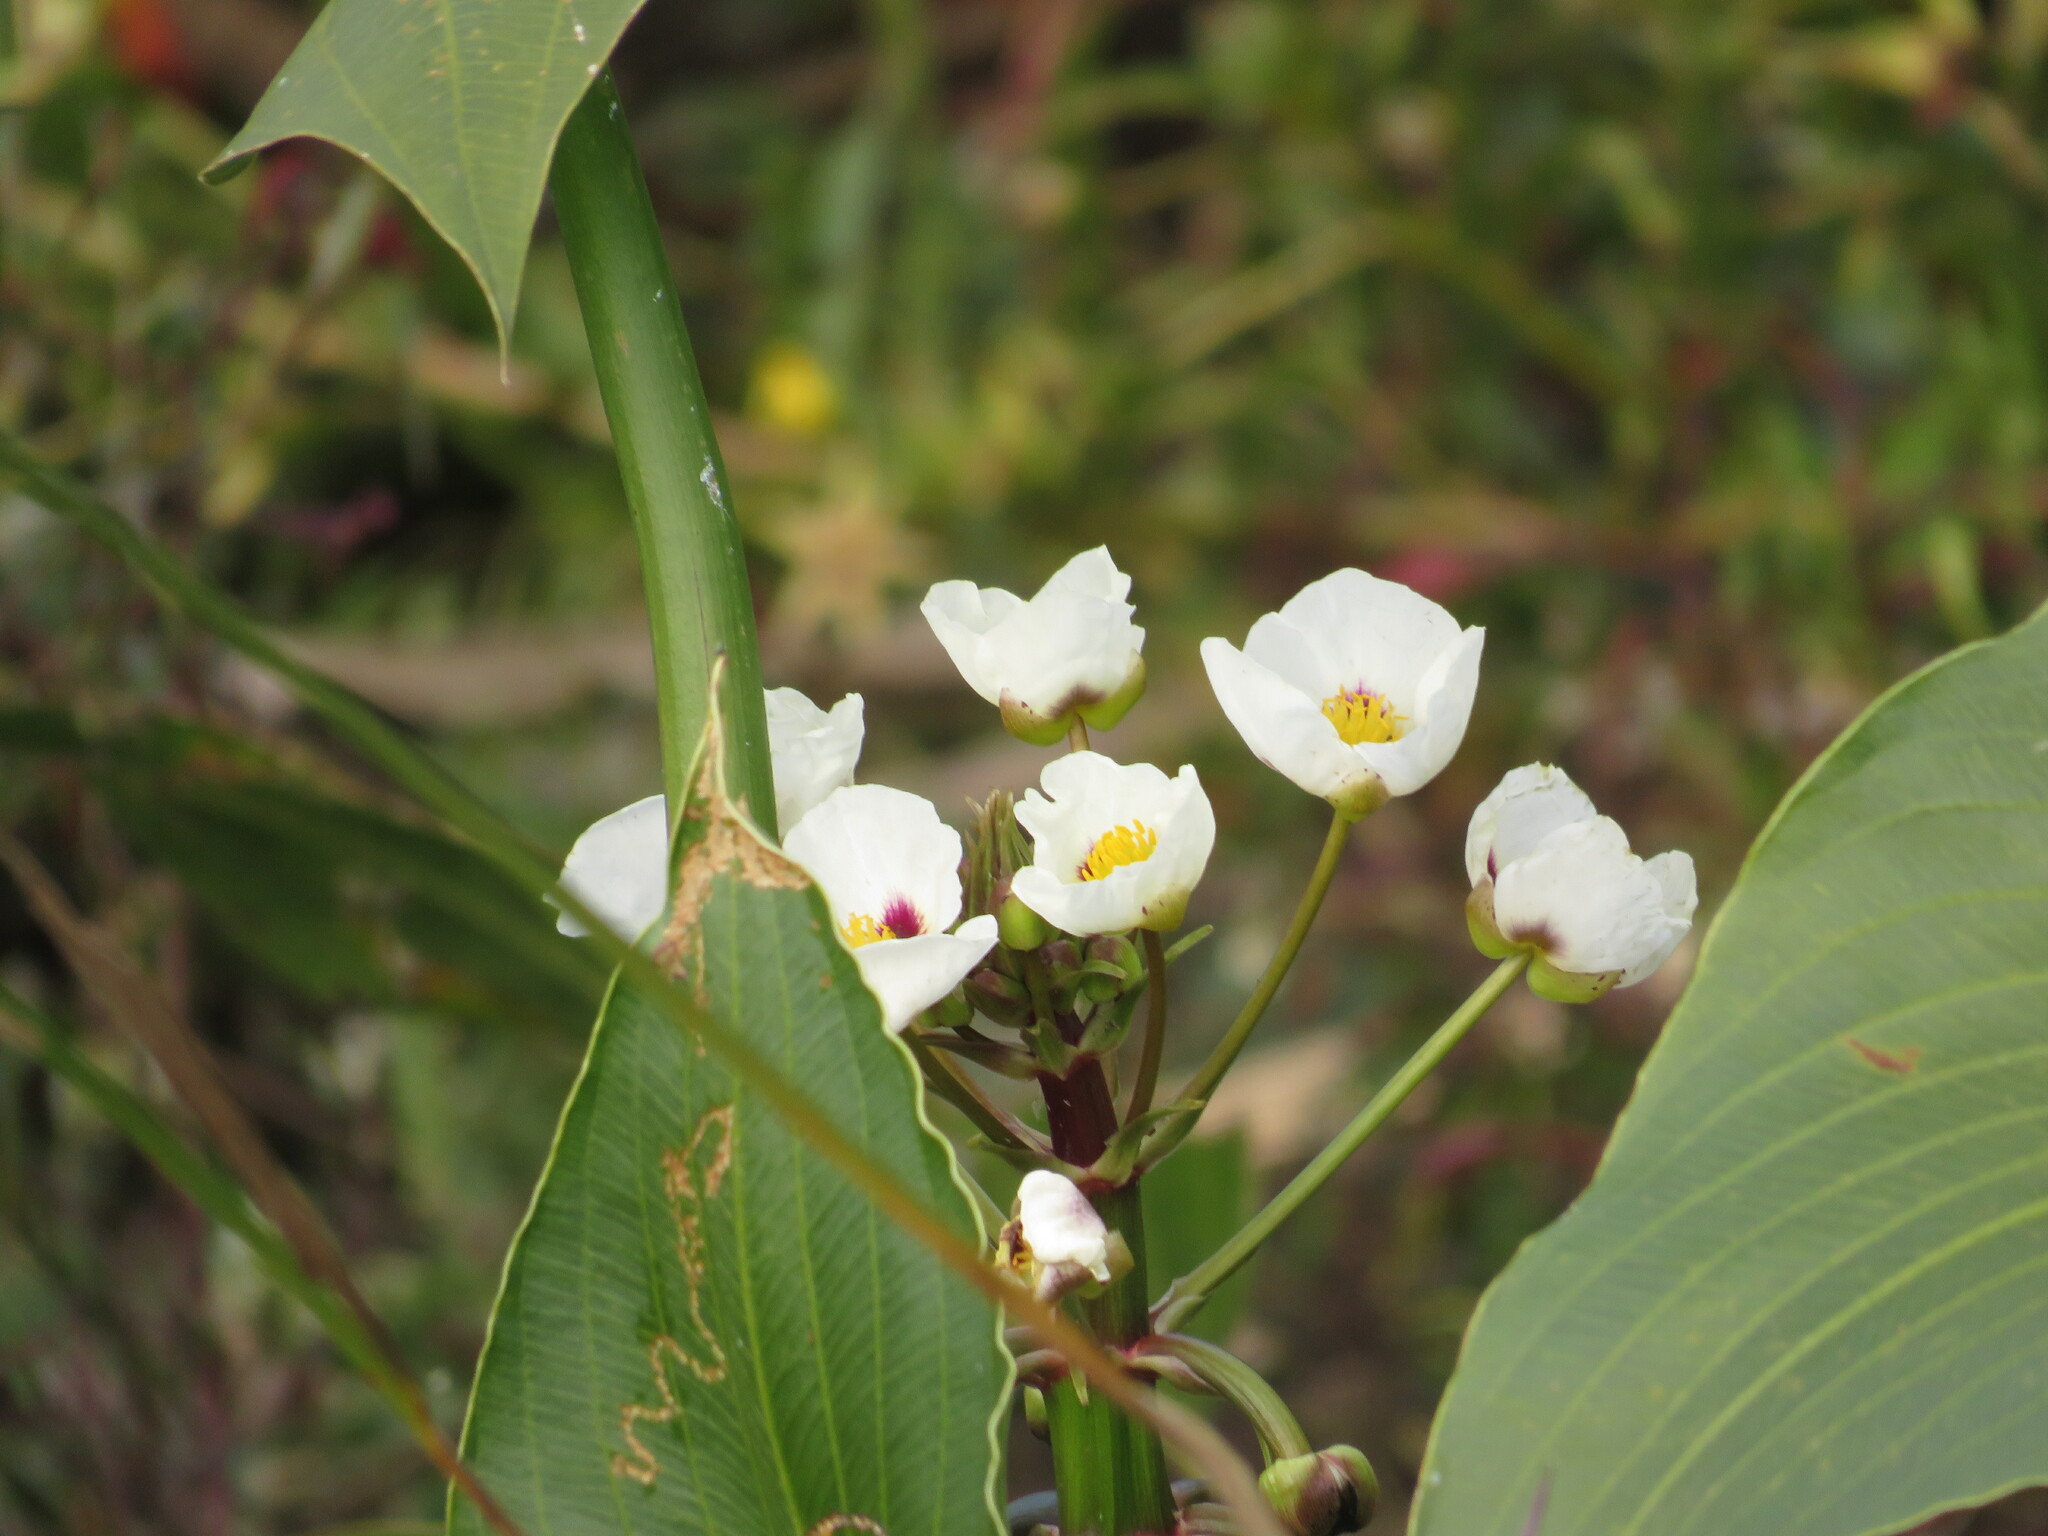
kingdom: Plantae
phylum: Tracheophyta
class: Liliopsida
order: Alismatales
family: Alismataceae
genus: Sagittaria
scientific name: Sagittaria montevidensis
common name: Giant arrowhead
